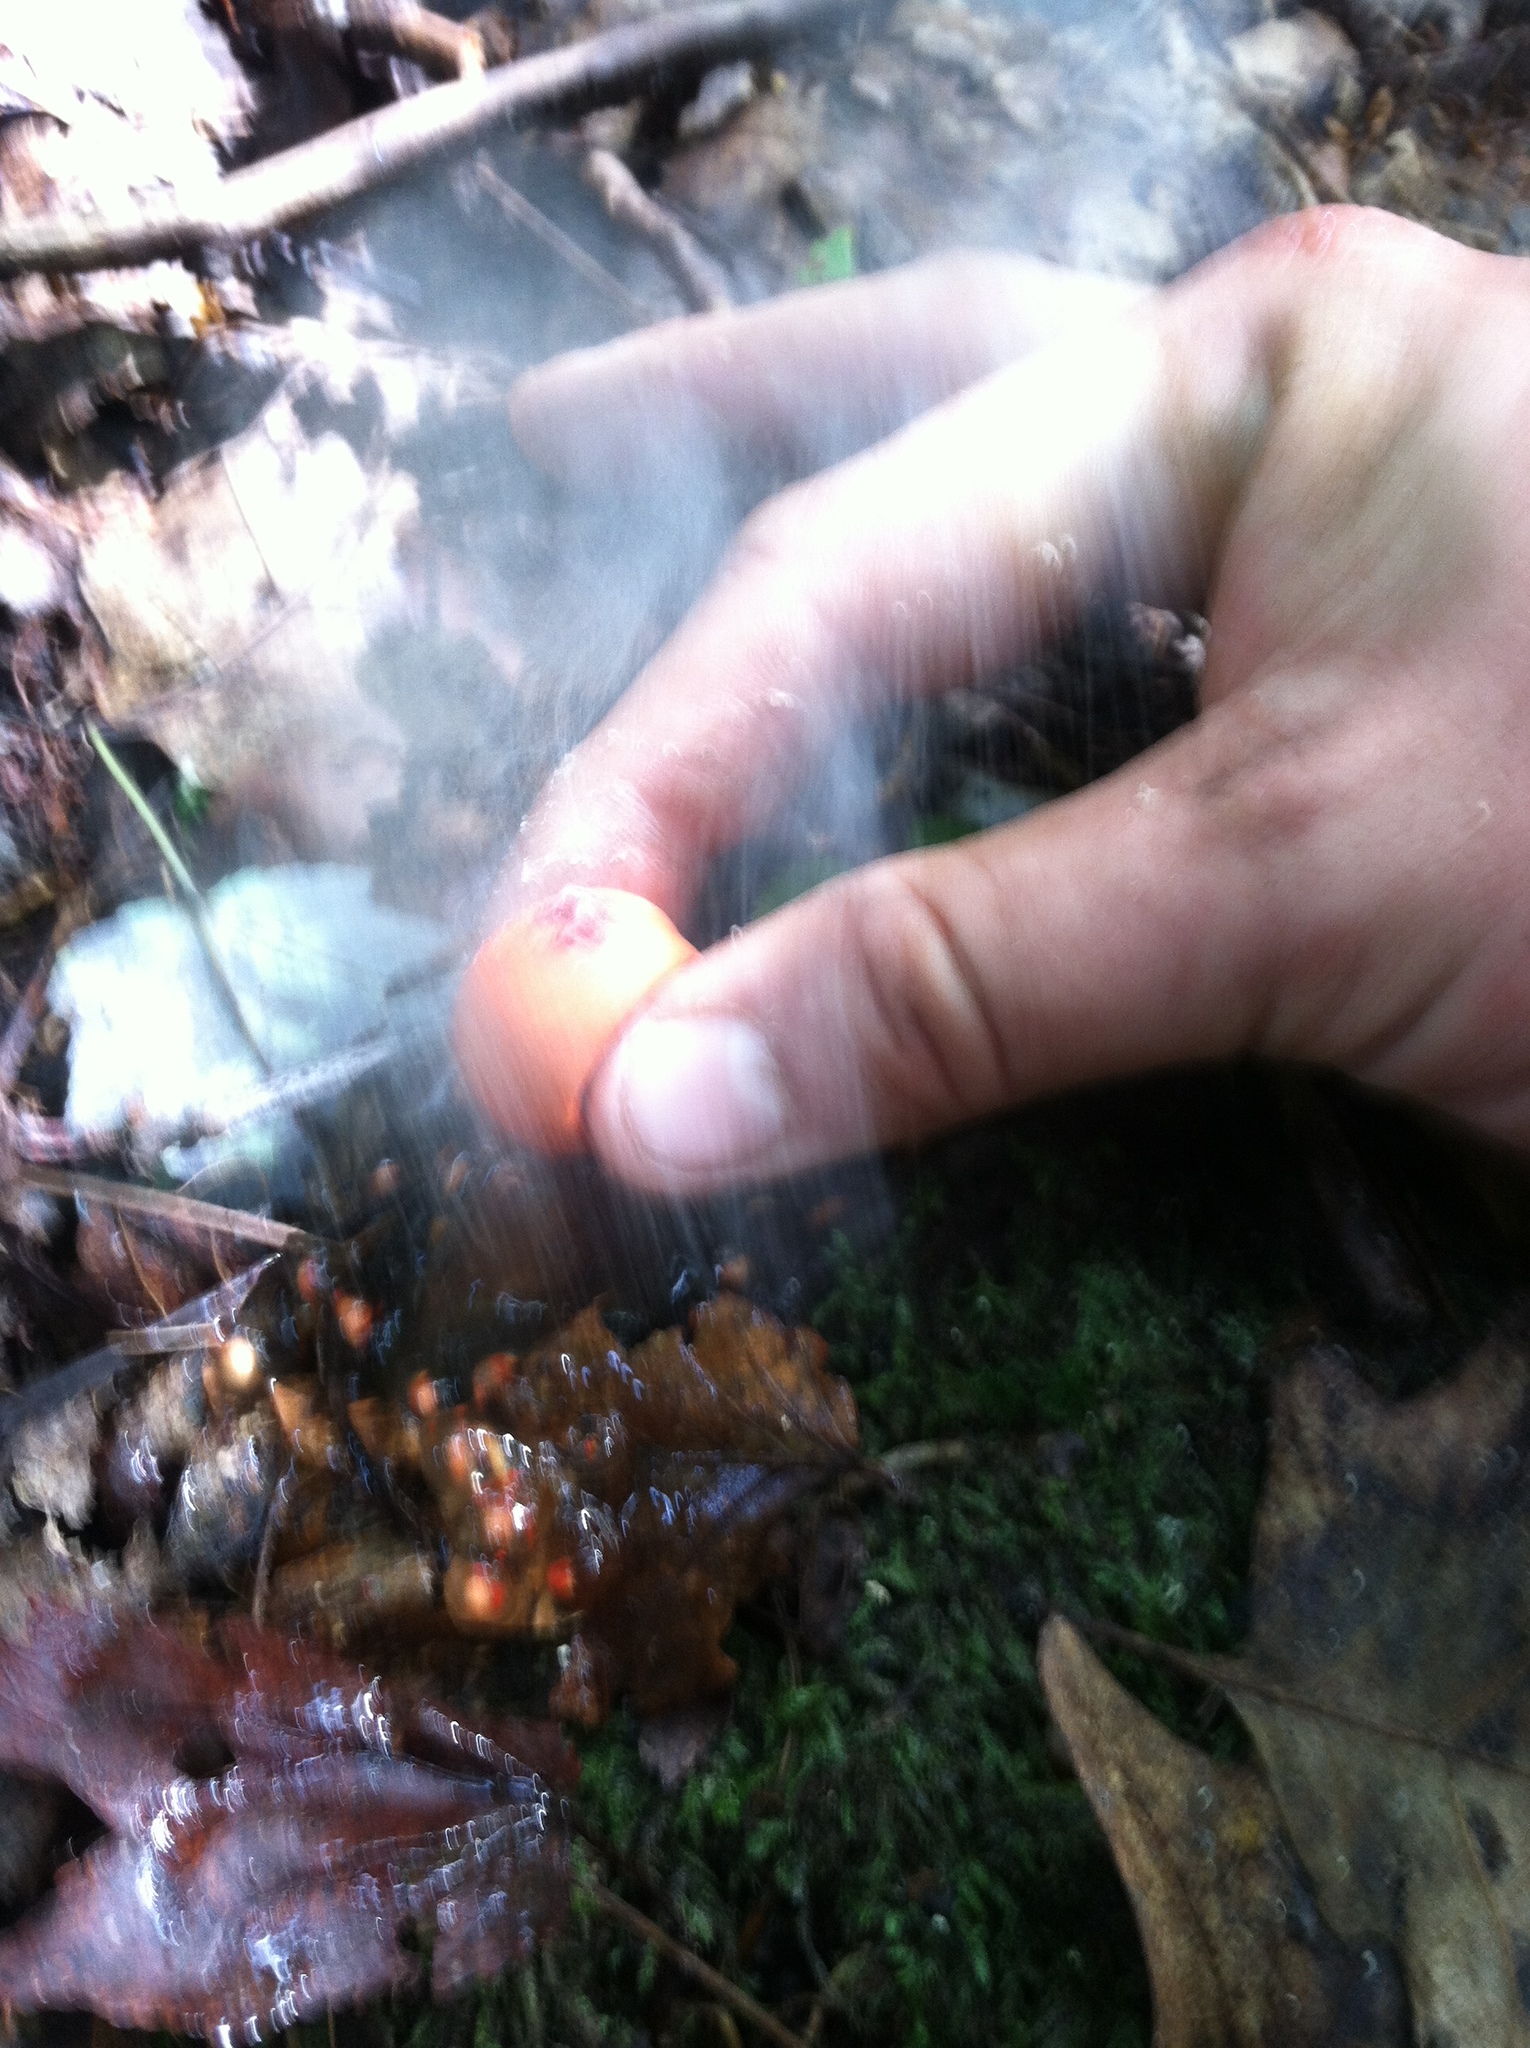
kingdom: Fungi
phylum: Basidiomycota
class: Agaricomycetes
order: Boletales
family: Calostomataceae
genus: Calostoma
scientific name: Calostoma cinnabarinum
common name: Stalked puffball-in-aspic
